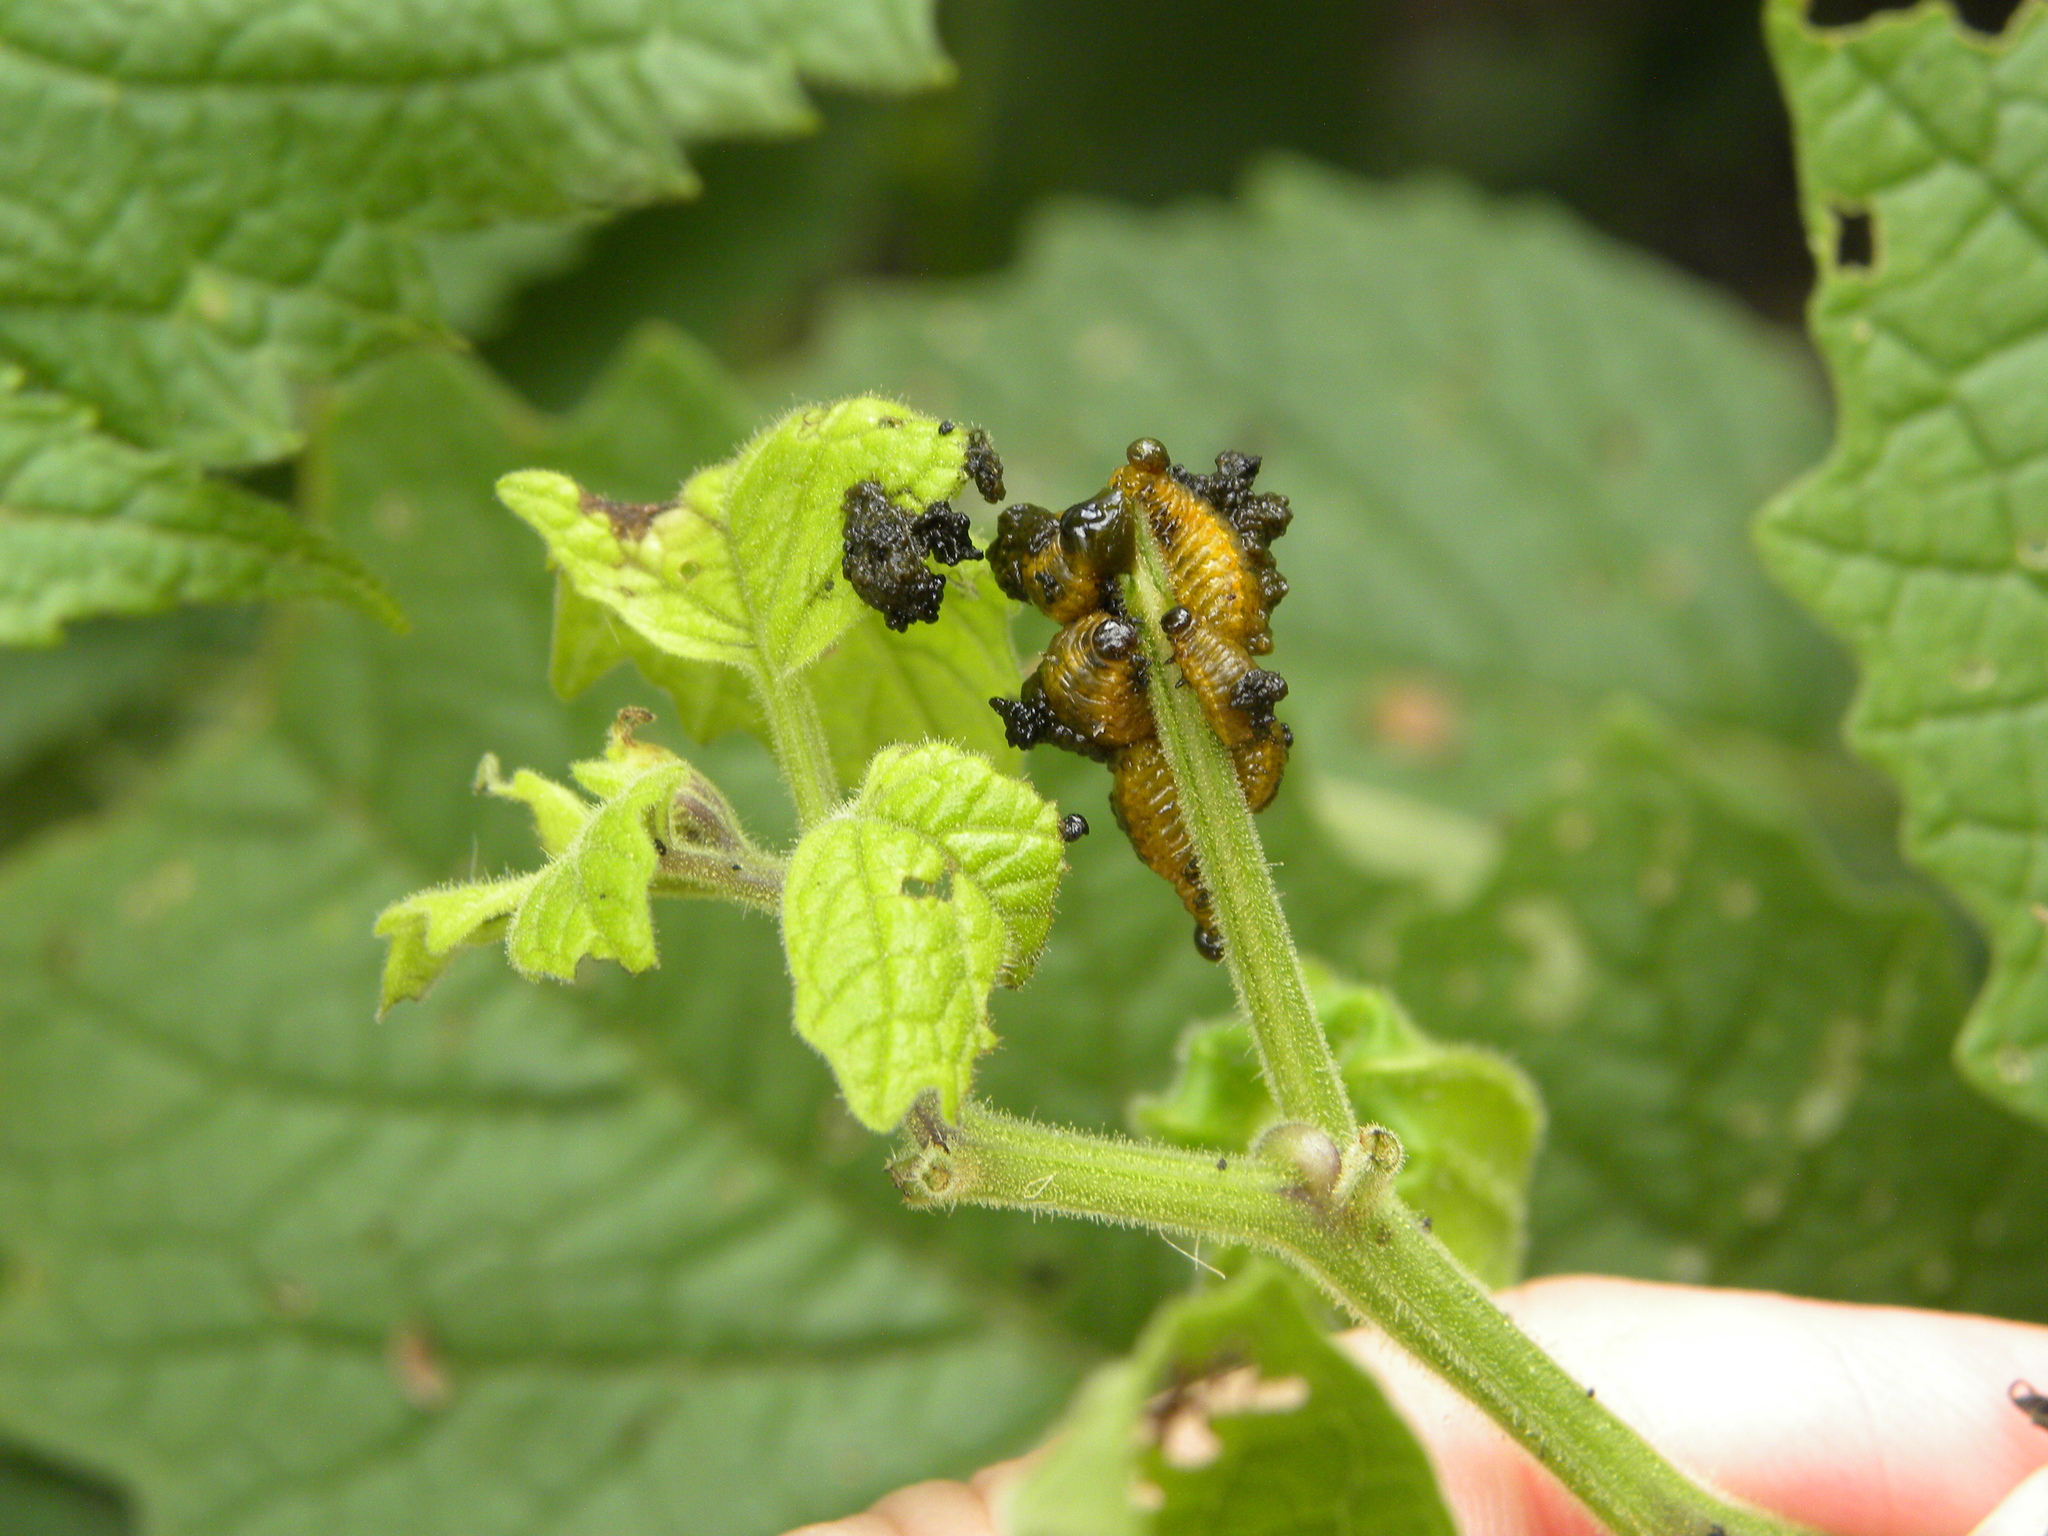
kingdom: Animalia
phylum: Arthropoda
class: Insecta
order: Coleoptera
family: Chrysomelidae
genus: Lema
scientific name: Lema daturaphila
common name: Leaf beetle
